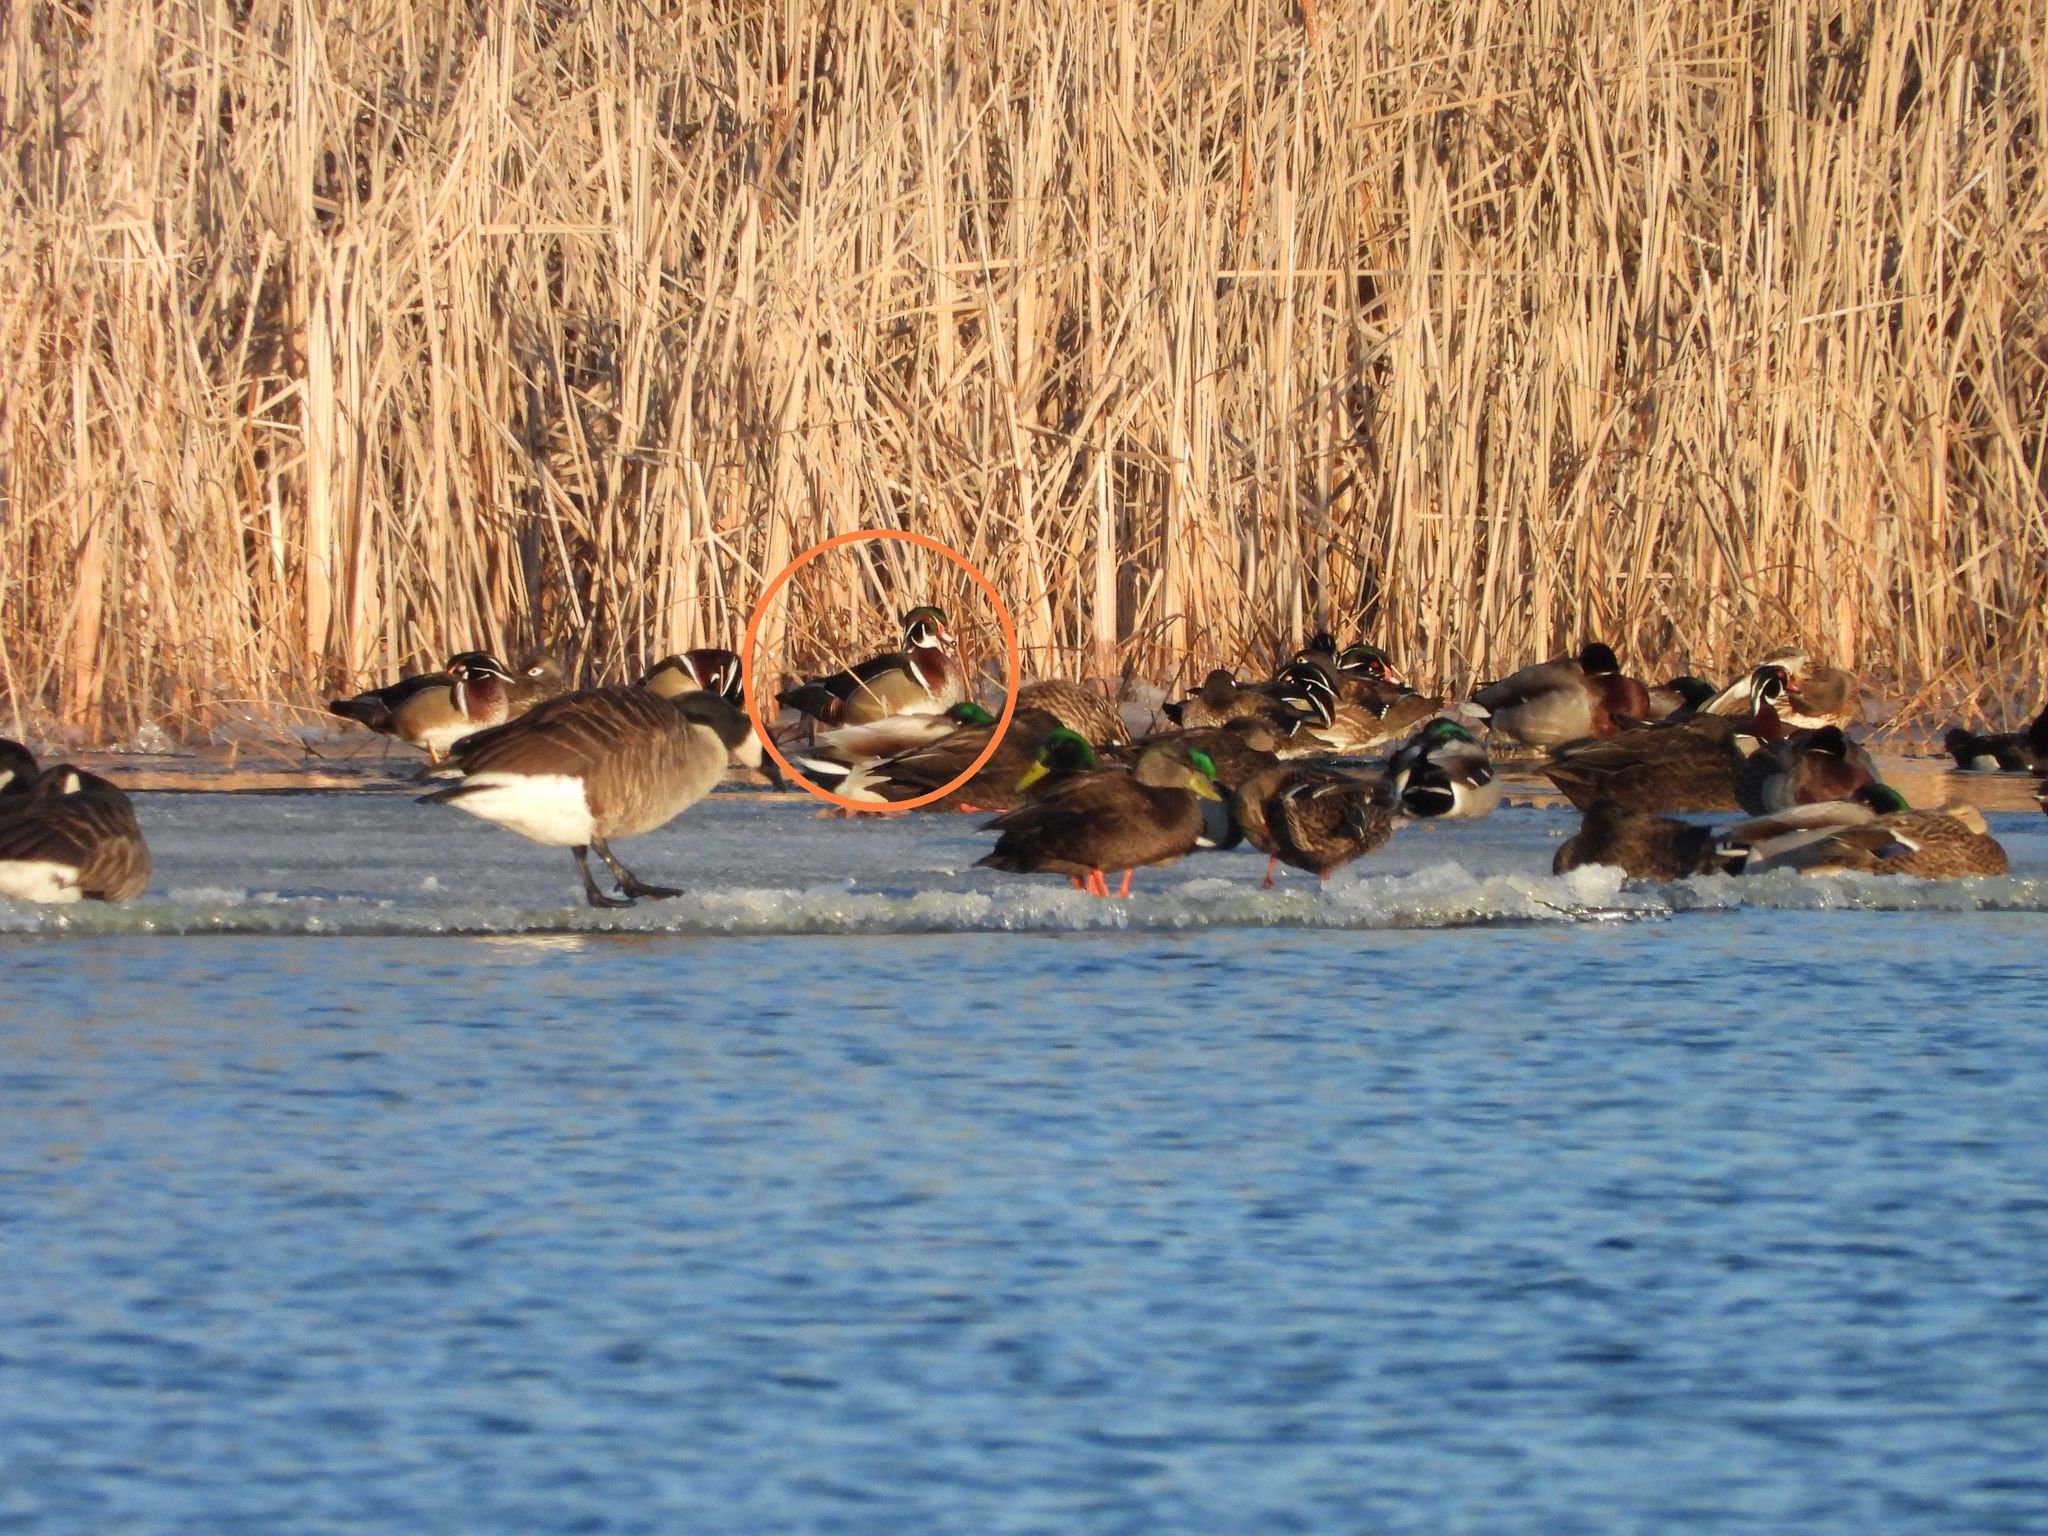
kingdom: Animalia
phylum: Chordata
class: Aves
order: Anseriformes
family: Anatidae
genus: Aix
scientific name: Aix sponsa
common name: Wood duck
